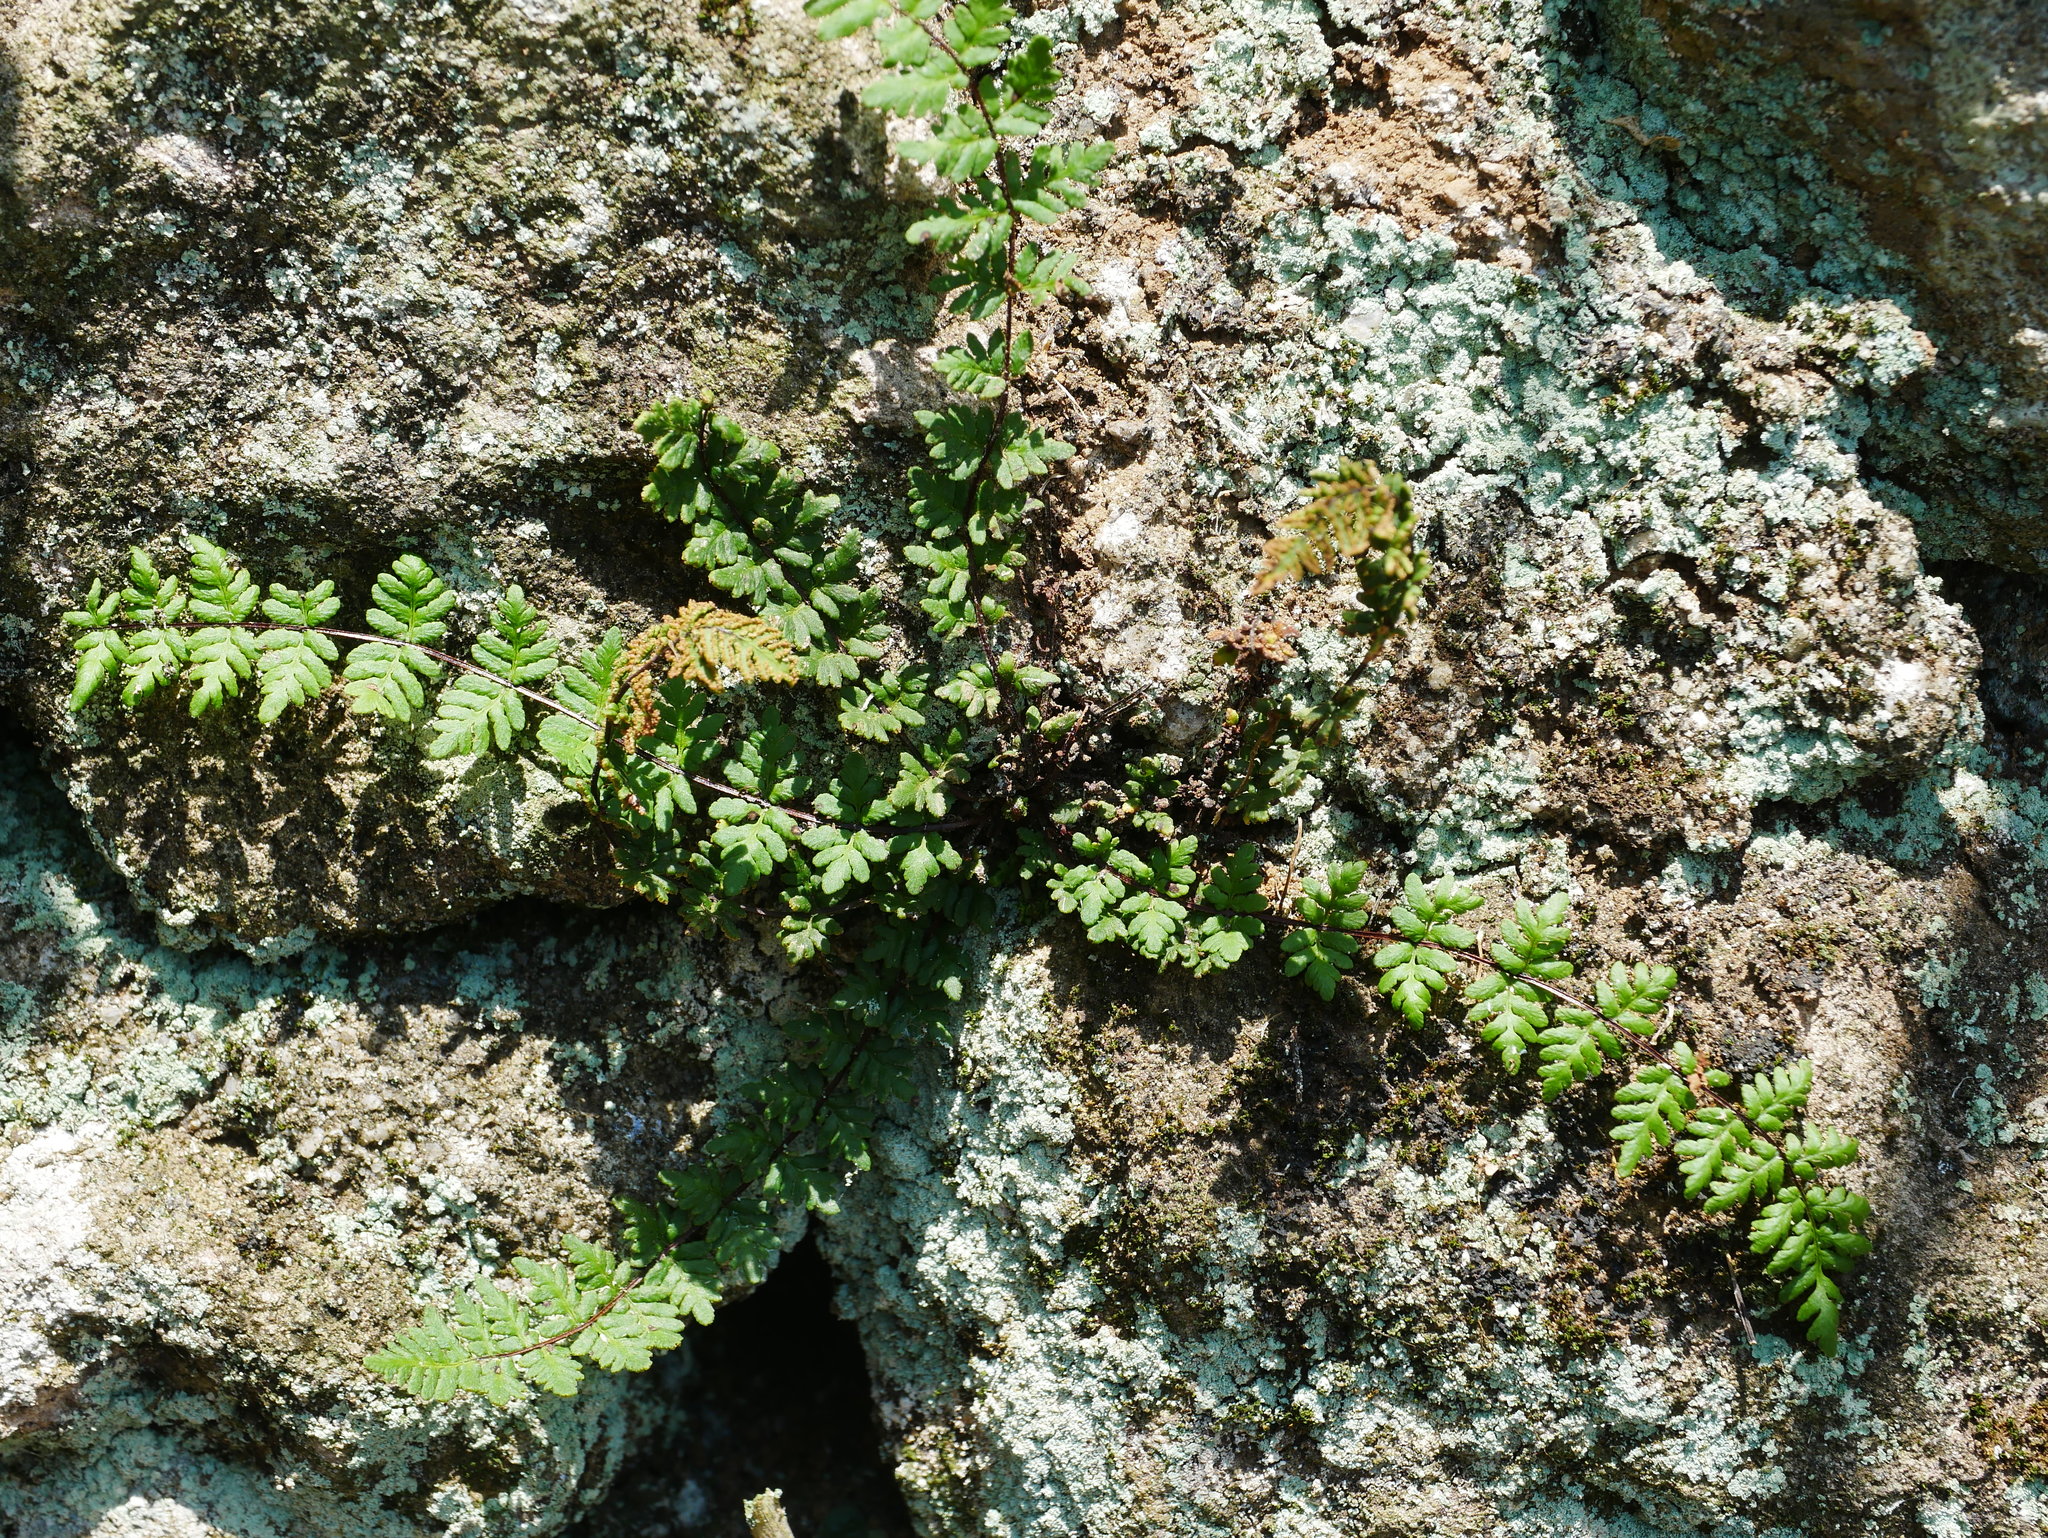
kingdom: Plantae
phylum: Tracheophyta
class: Polypodiopsida
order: Polypodiales
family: Pteridaceae
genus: Oeosporangium
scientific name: Oeosporangium chusanum
